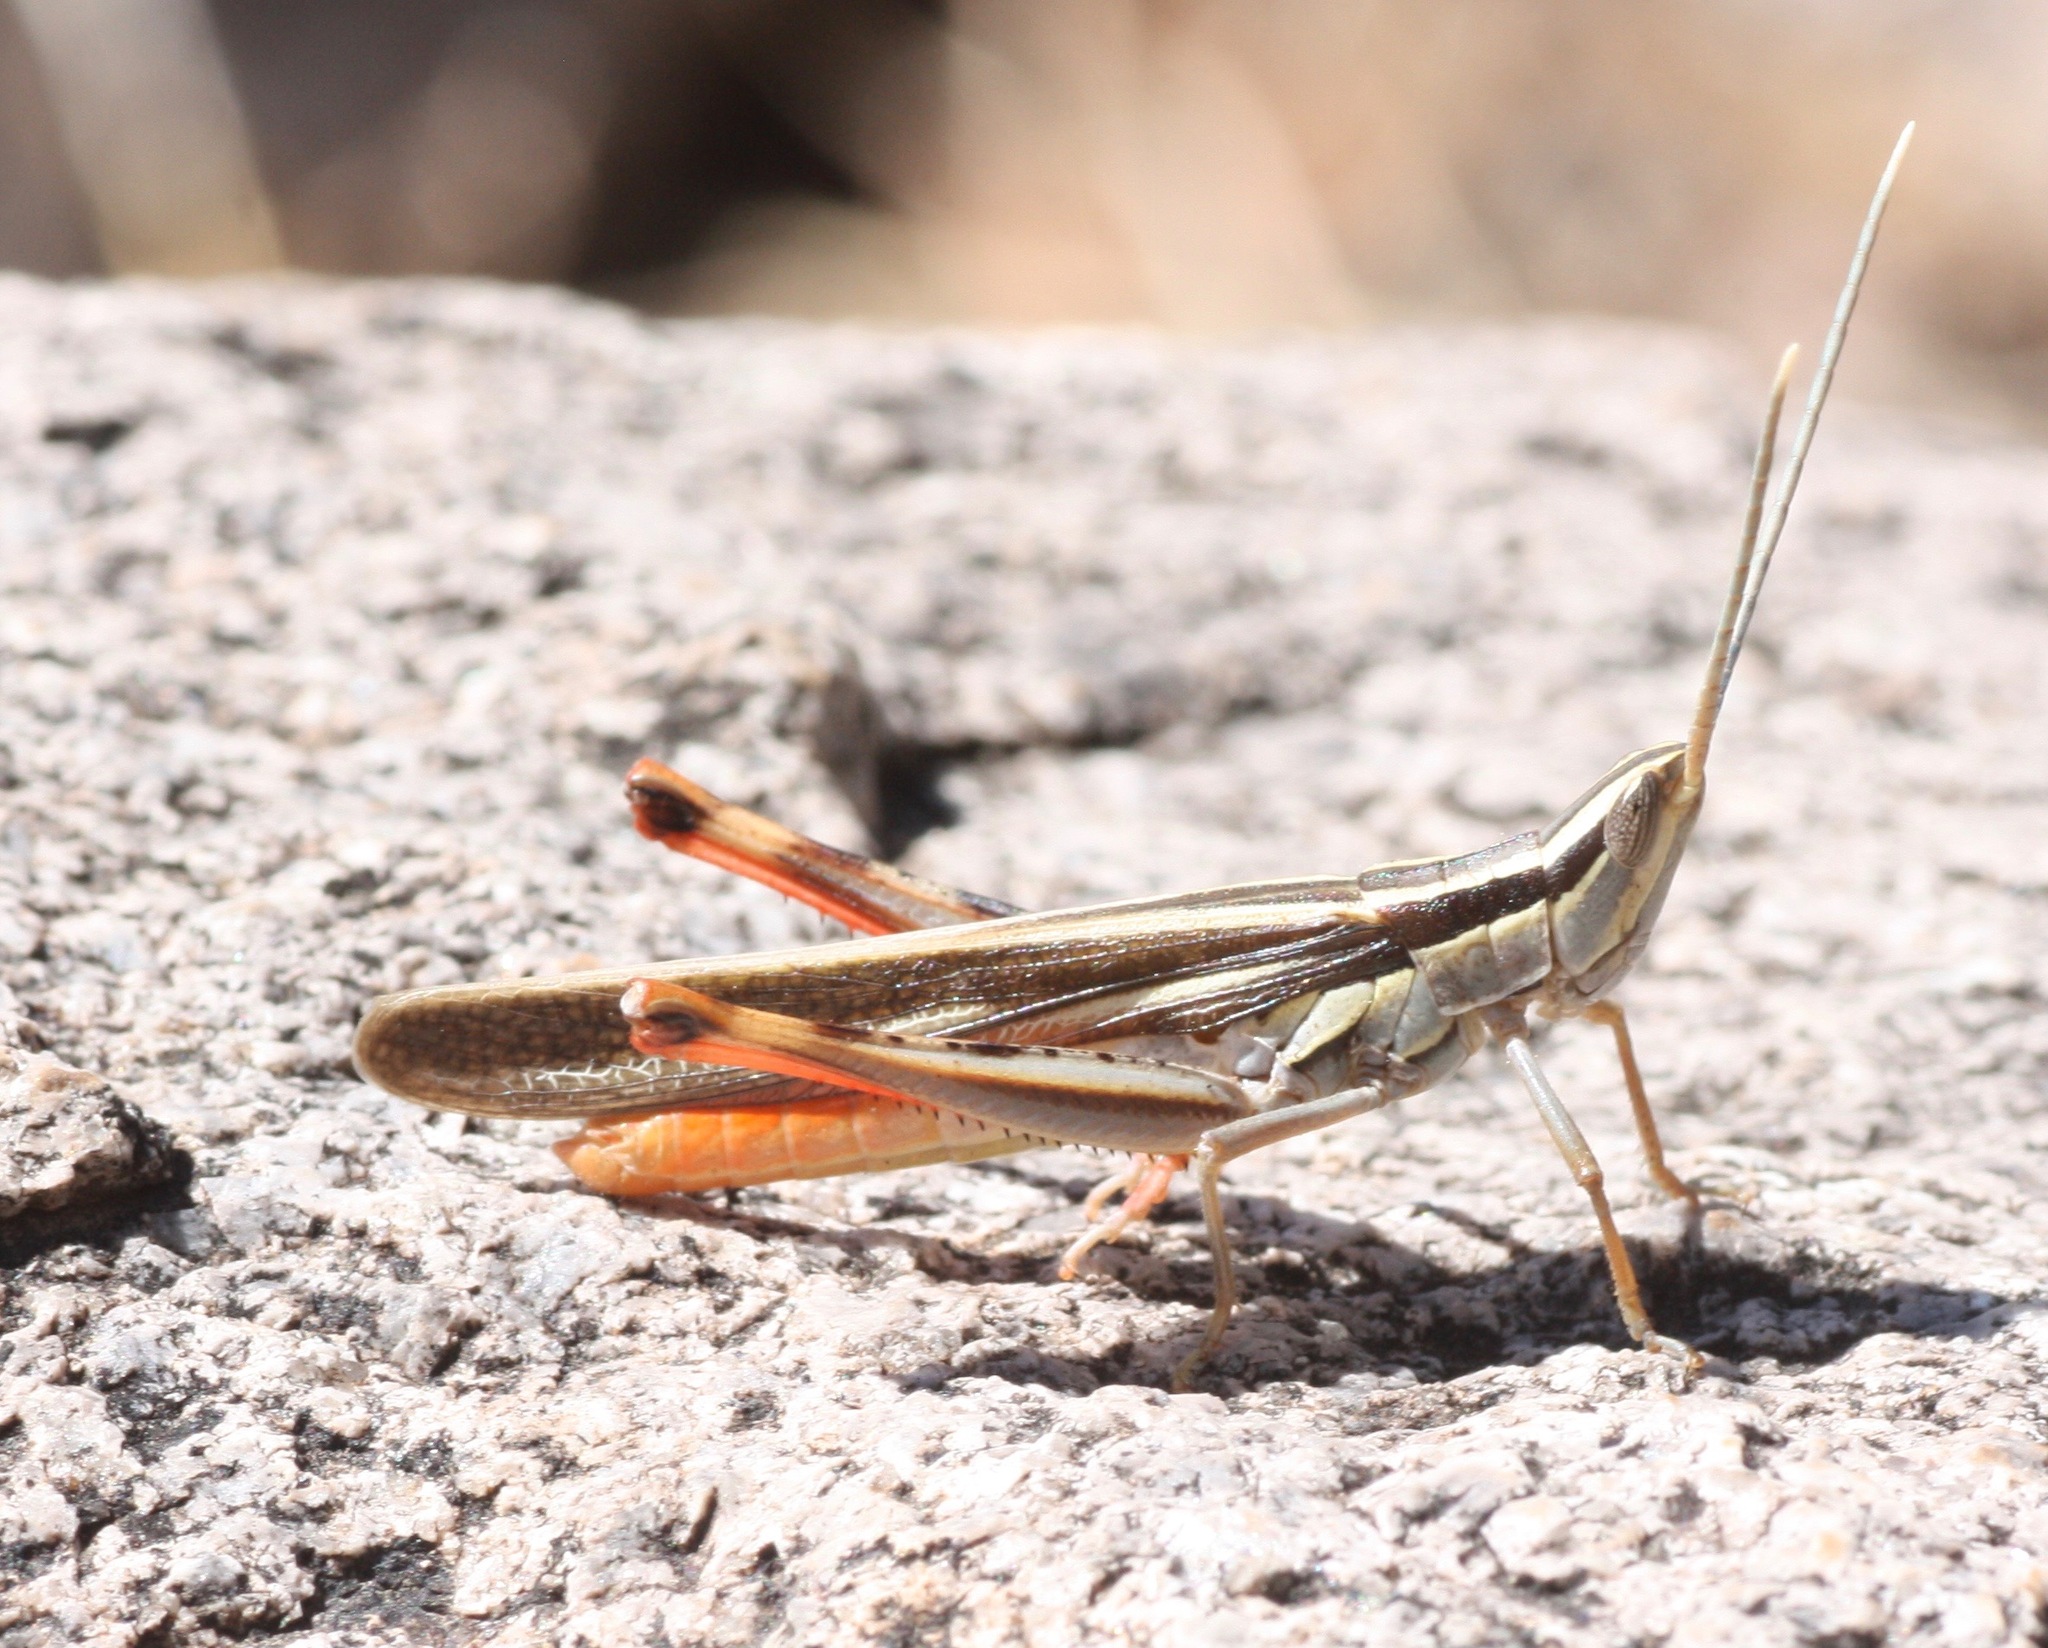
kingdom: Animalia
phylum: Arthropoda
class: Insecta
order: Orthoptera
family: Acrididae
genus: Mermiria
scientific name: Mermiria texana
